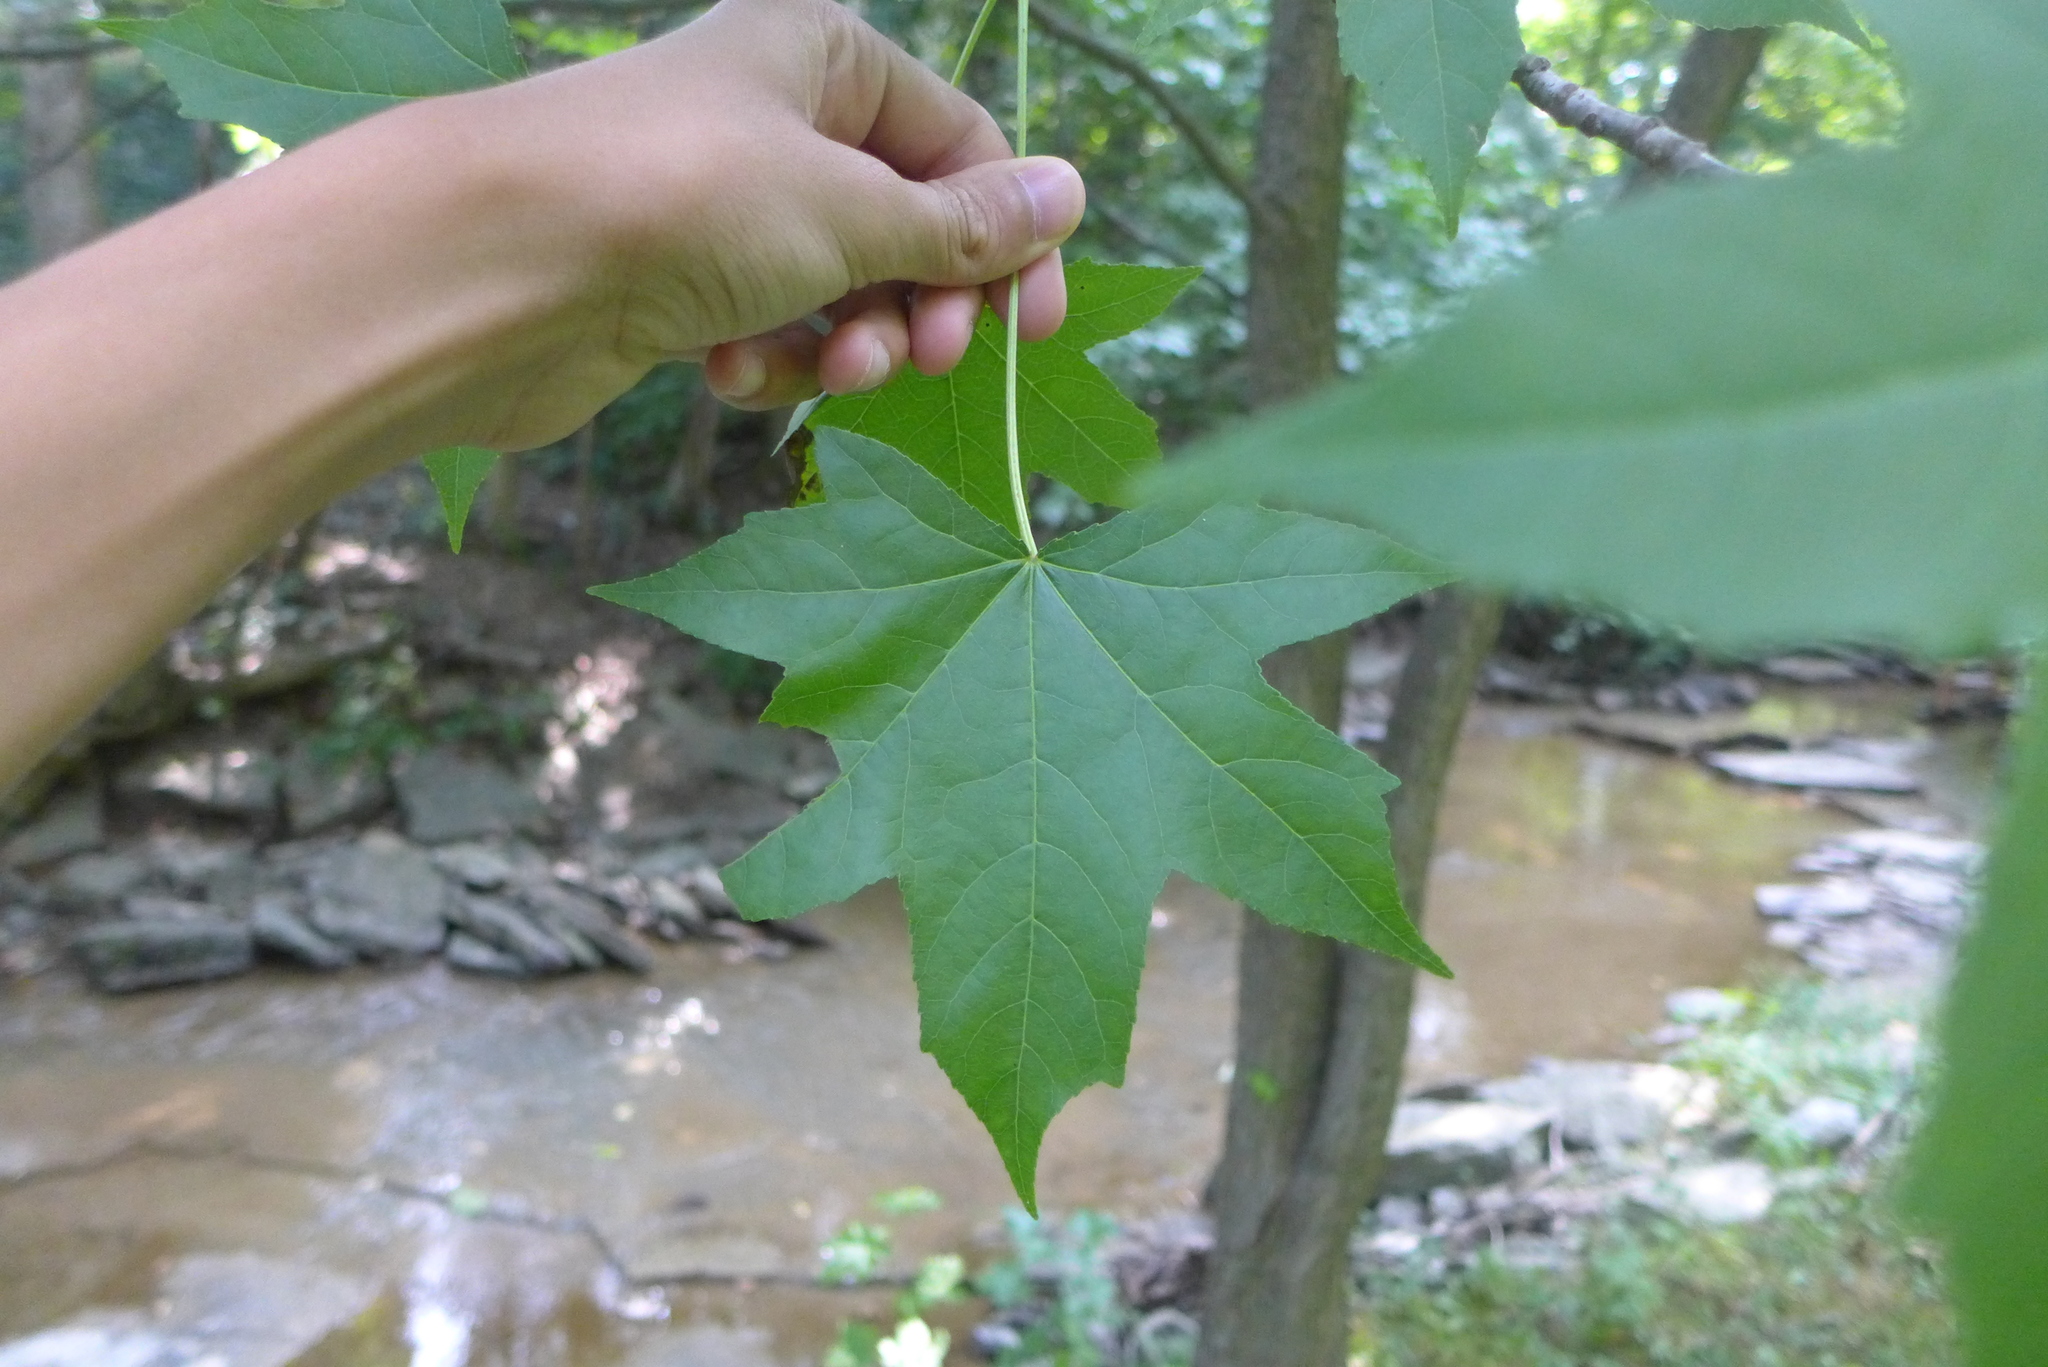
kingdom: Plantae
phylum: Tracheophyta
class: Magnoliopsida
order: Saxifragales
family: Altingiaceae
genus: Liquidambar
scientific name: Liquidambar styraciflua
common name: Sweet gum
